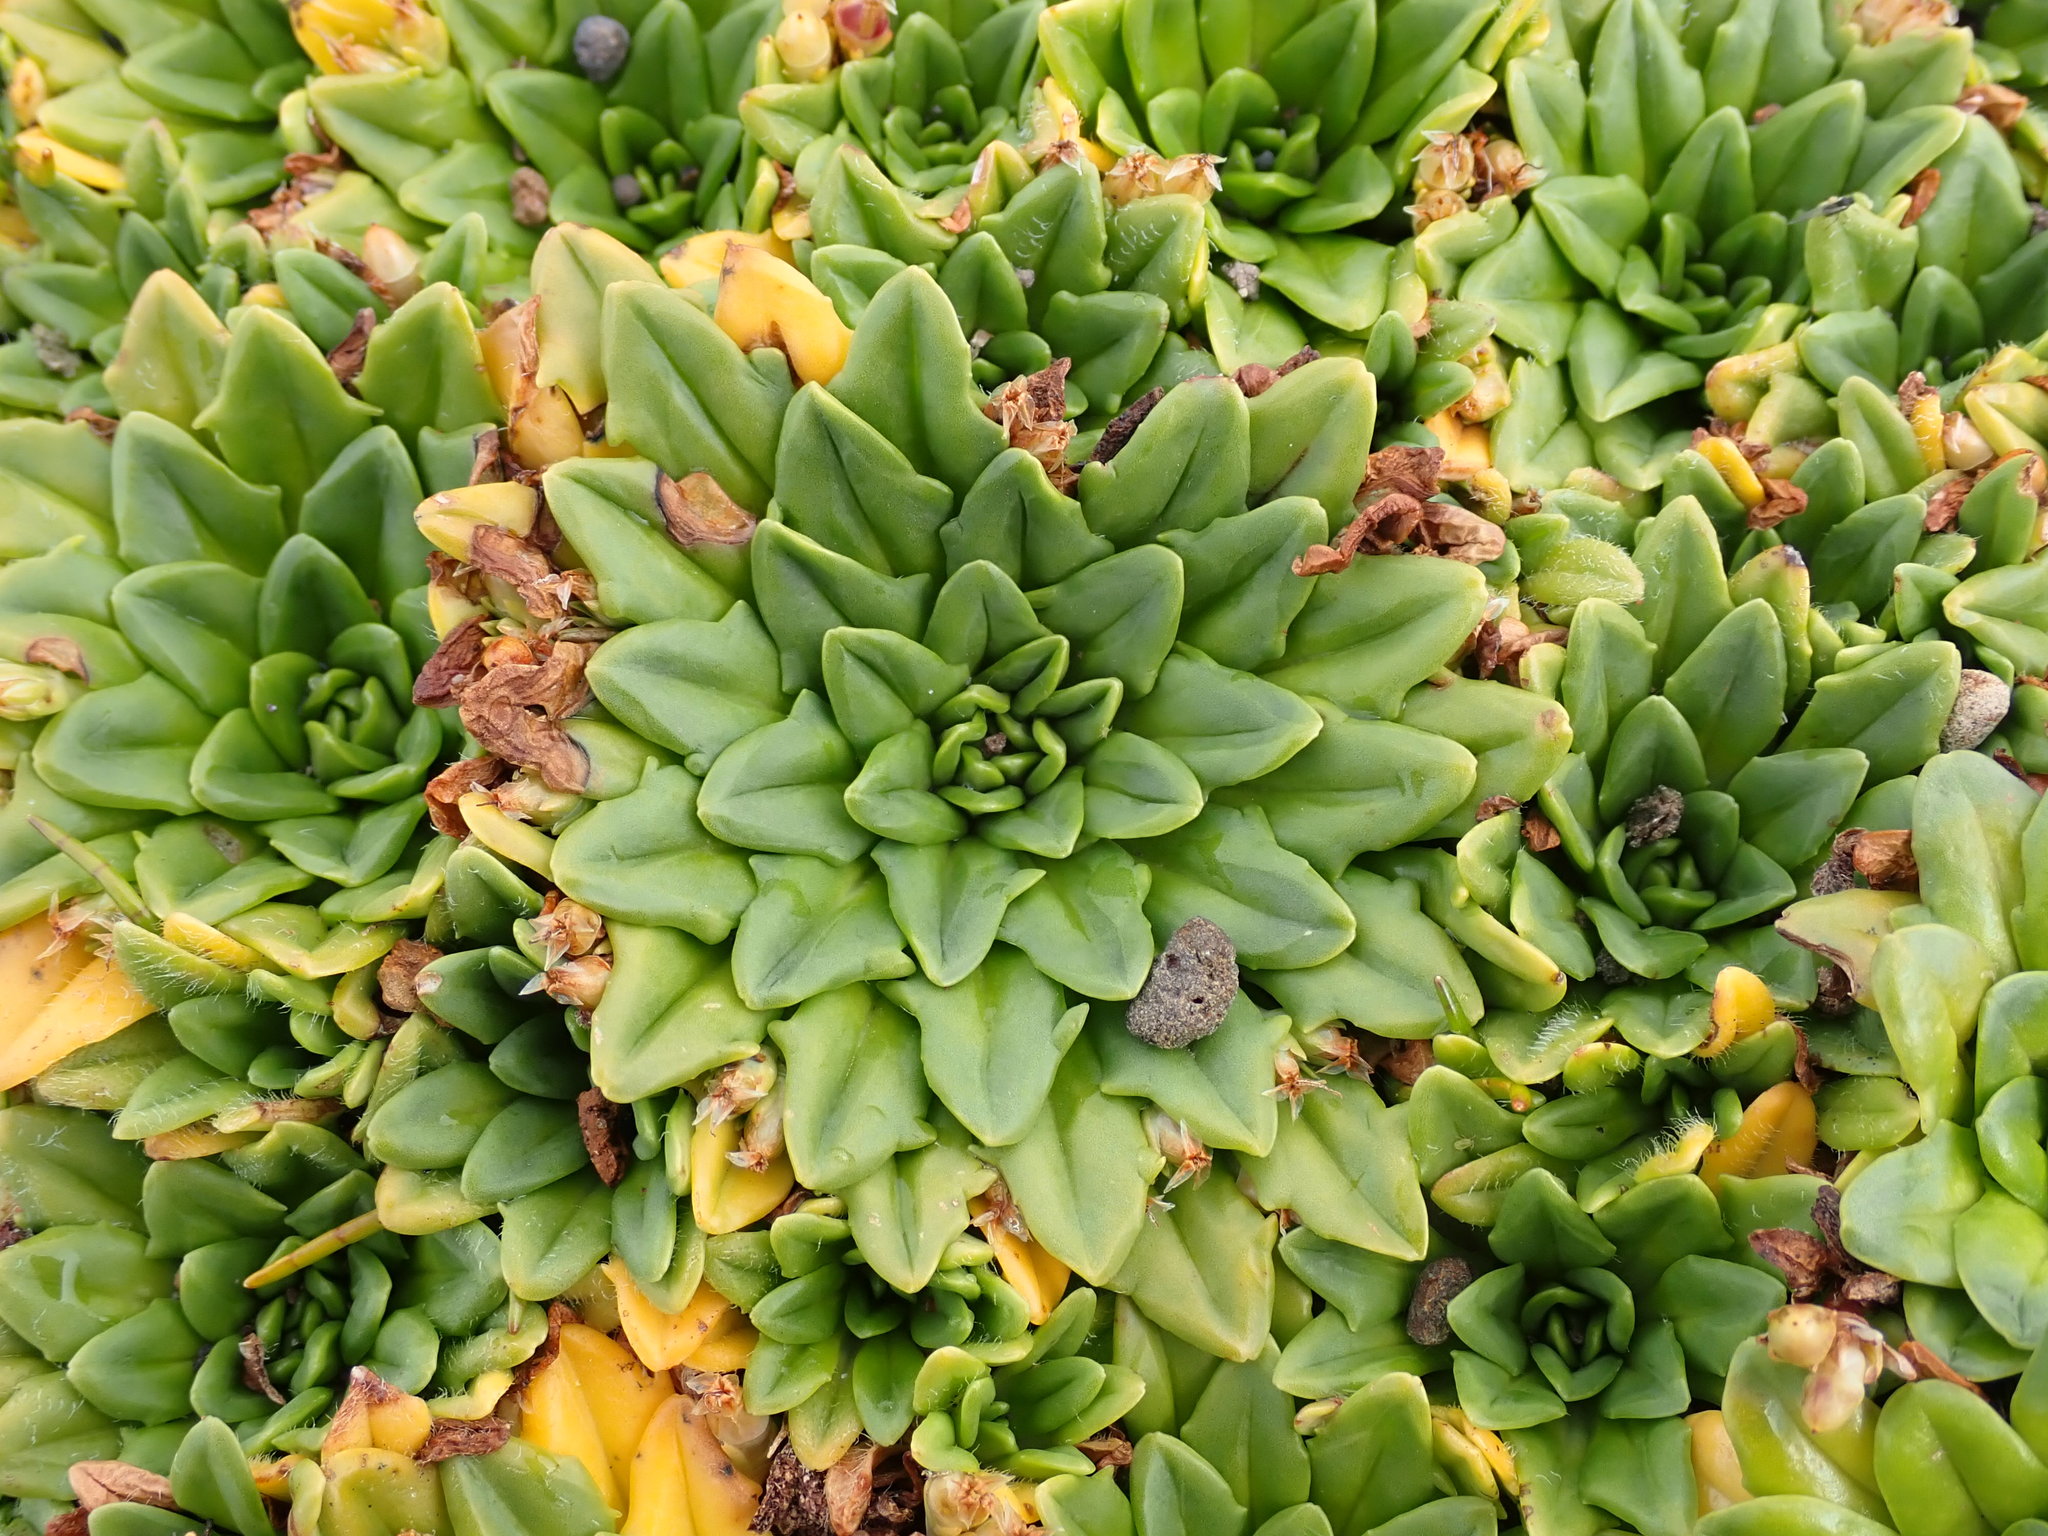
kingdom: Plantae
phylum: Tracheophyta
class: Magnoliopsida
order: Lamiales
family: Plantaginaceae
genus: Plantago
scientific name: Plantago brownii
